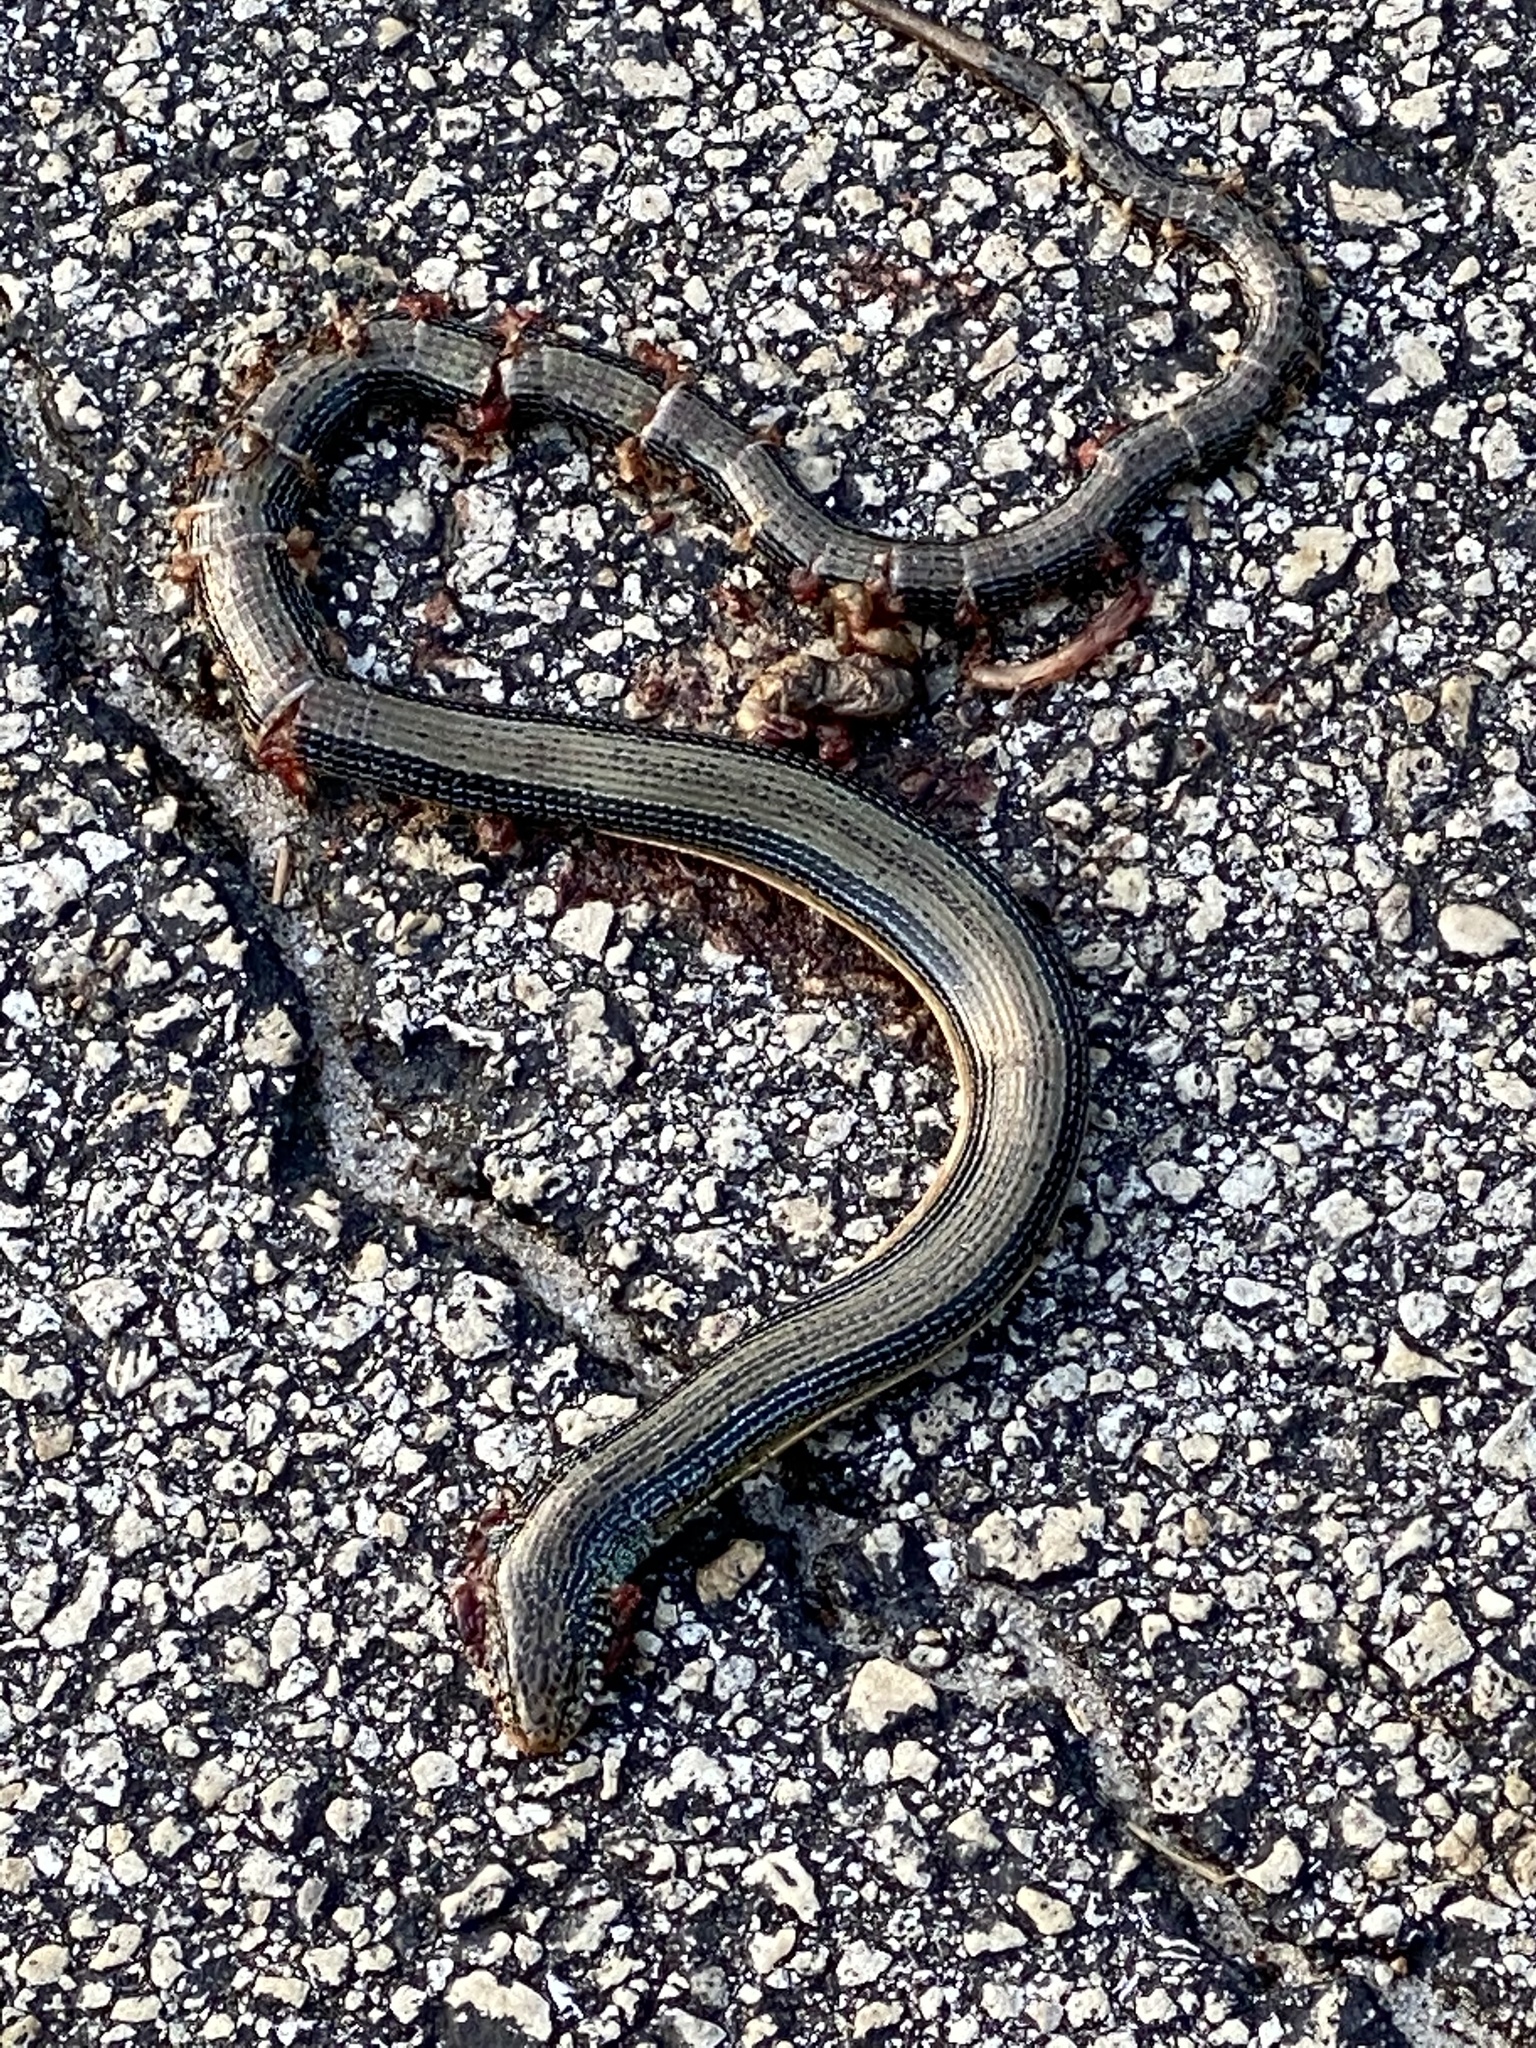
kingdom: Animalia
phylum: Chordata
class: Squamata
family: Anguidae
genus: Ophisaurus
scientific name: Ophisaurus ventralis
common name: Eastern glass lizard
